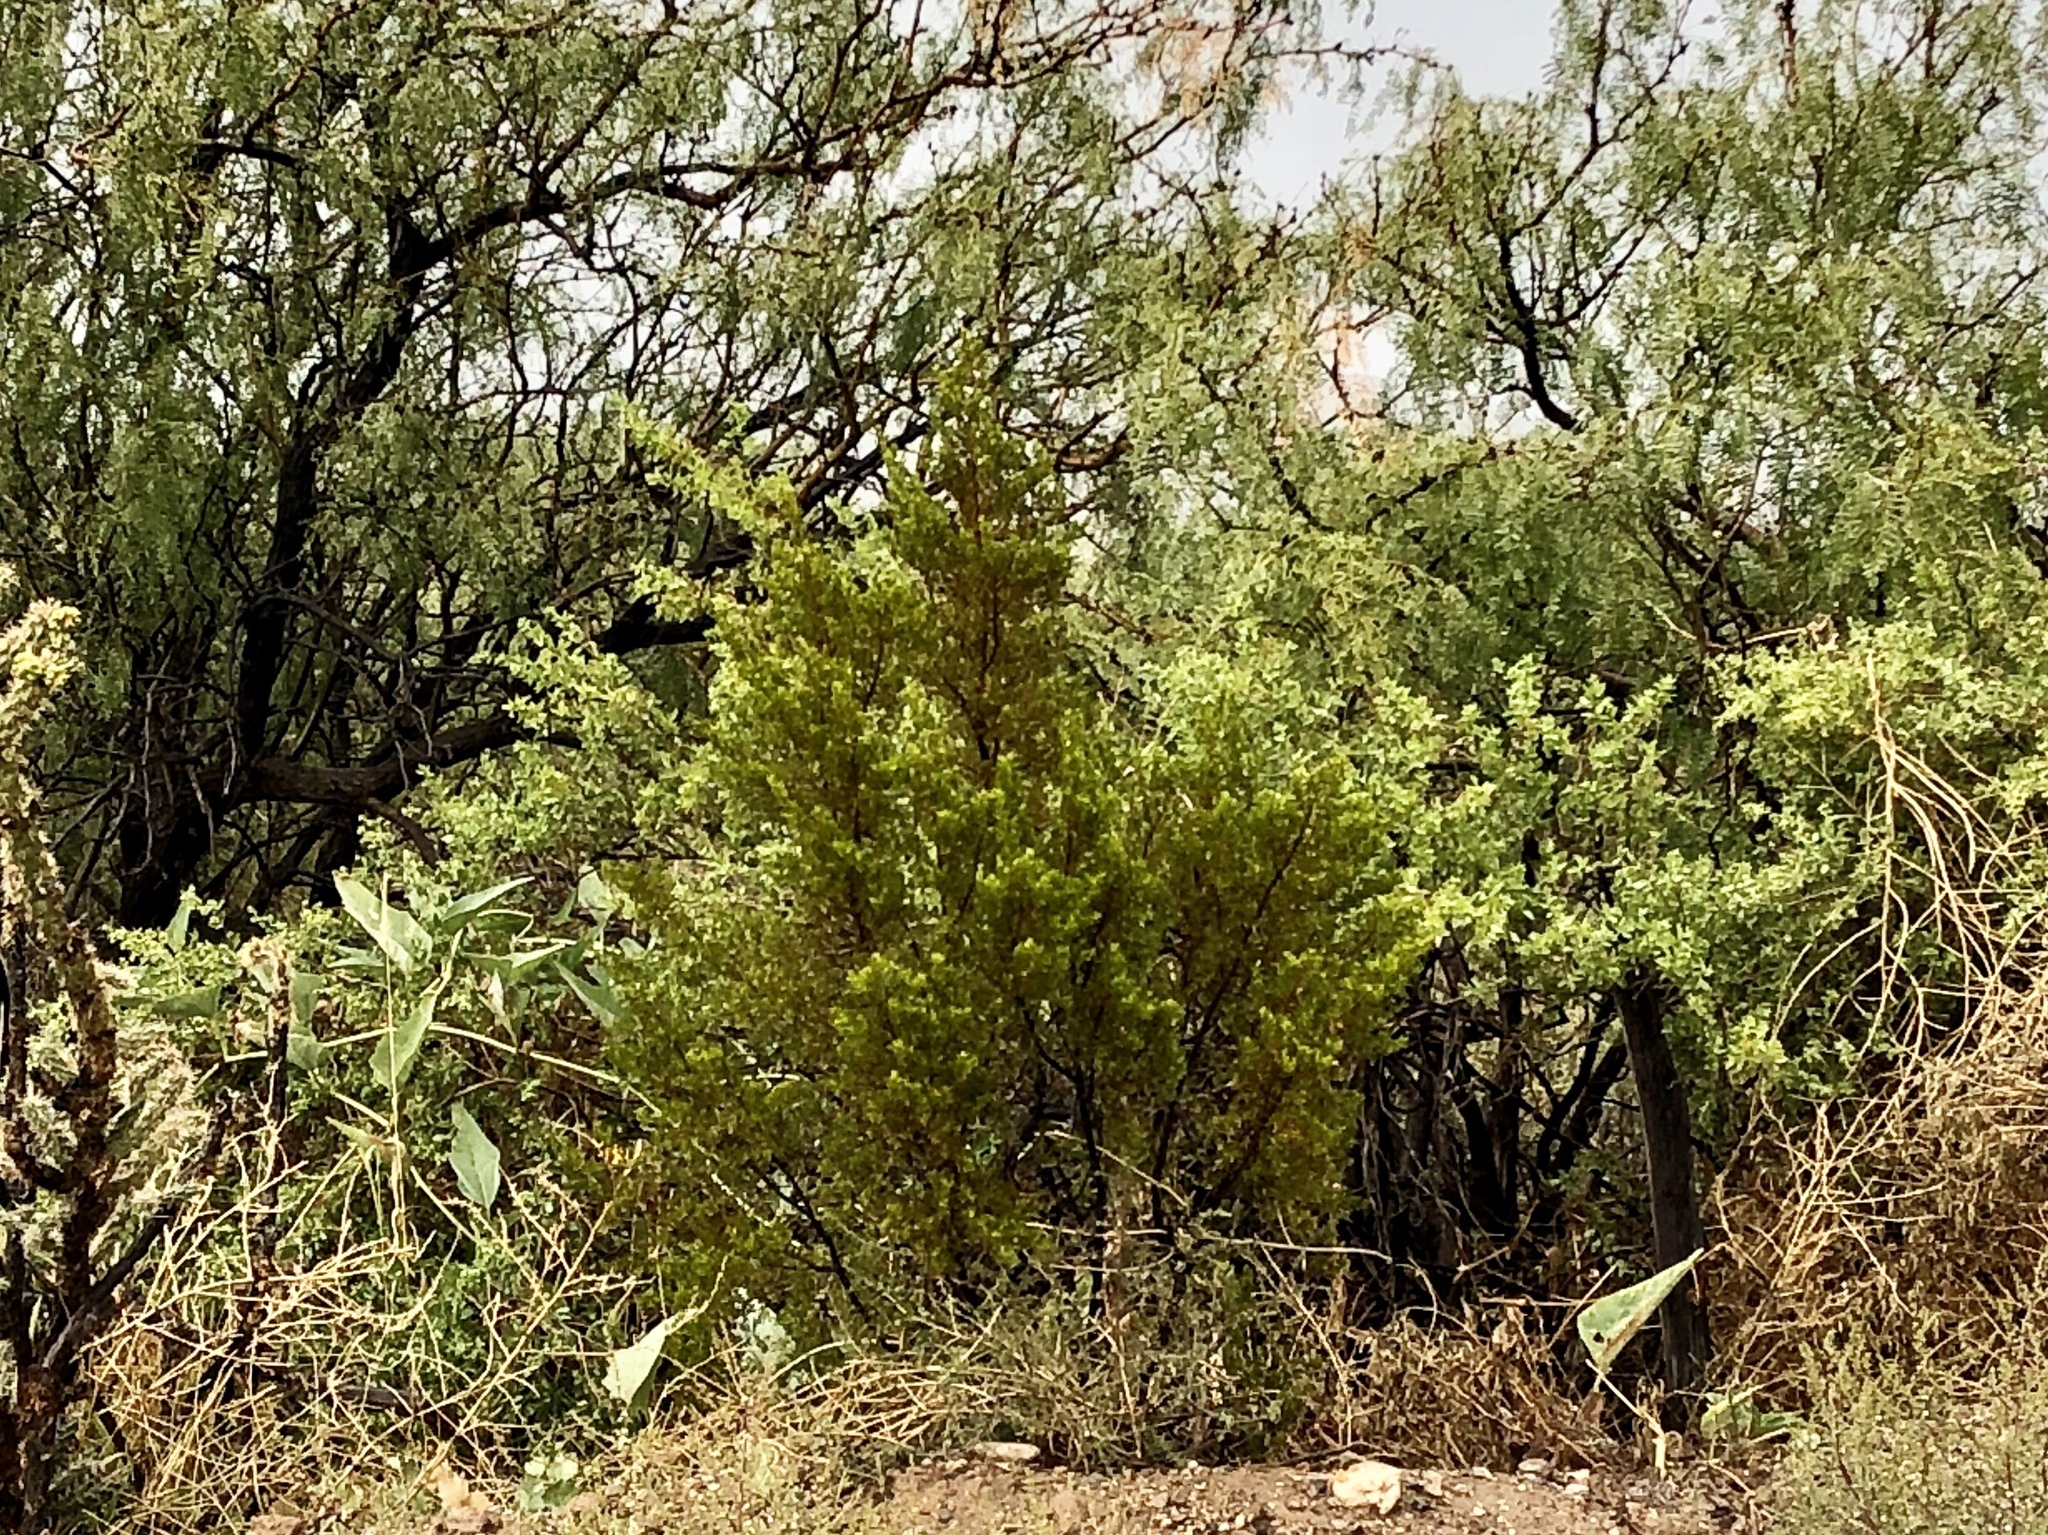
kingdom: Plantae
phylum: Tracheophyta
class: Magnoliopsida
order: Zygophyllales
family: Zygophyllaceae
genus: Larrea
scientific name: Larrea tridentata
